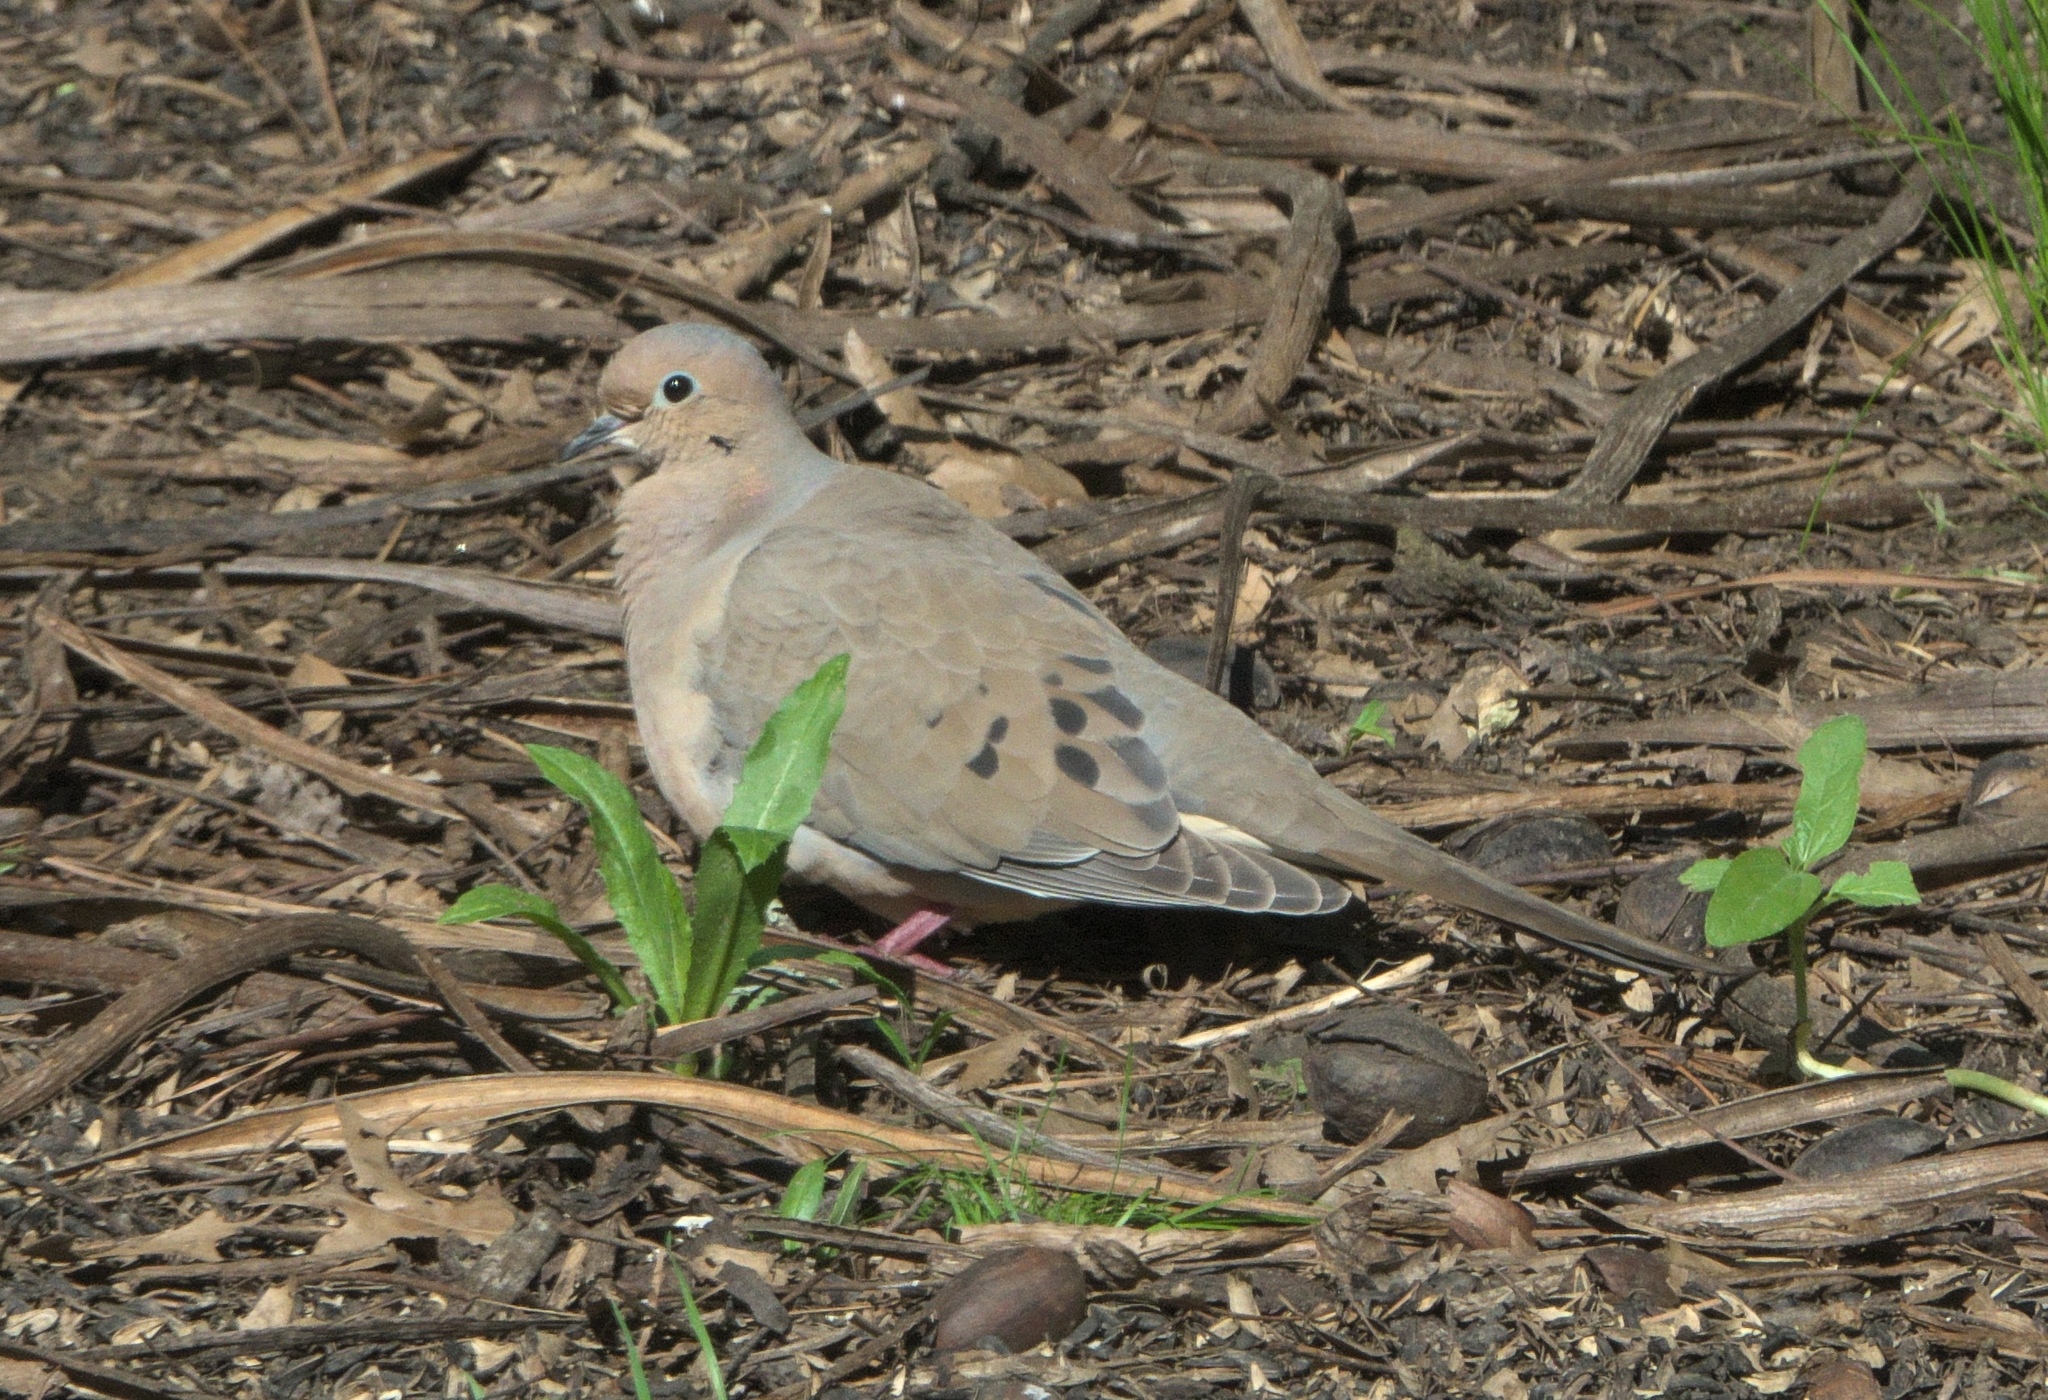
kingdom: Animalia
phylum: Chordata
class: Aves
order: Columbiformes
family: Columbidae
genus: Zenaida
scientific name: Zenaida macroura
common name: Mourning dove
